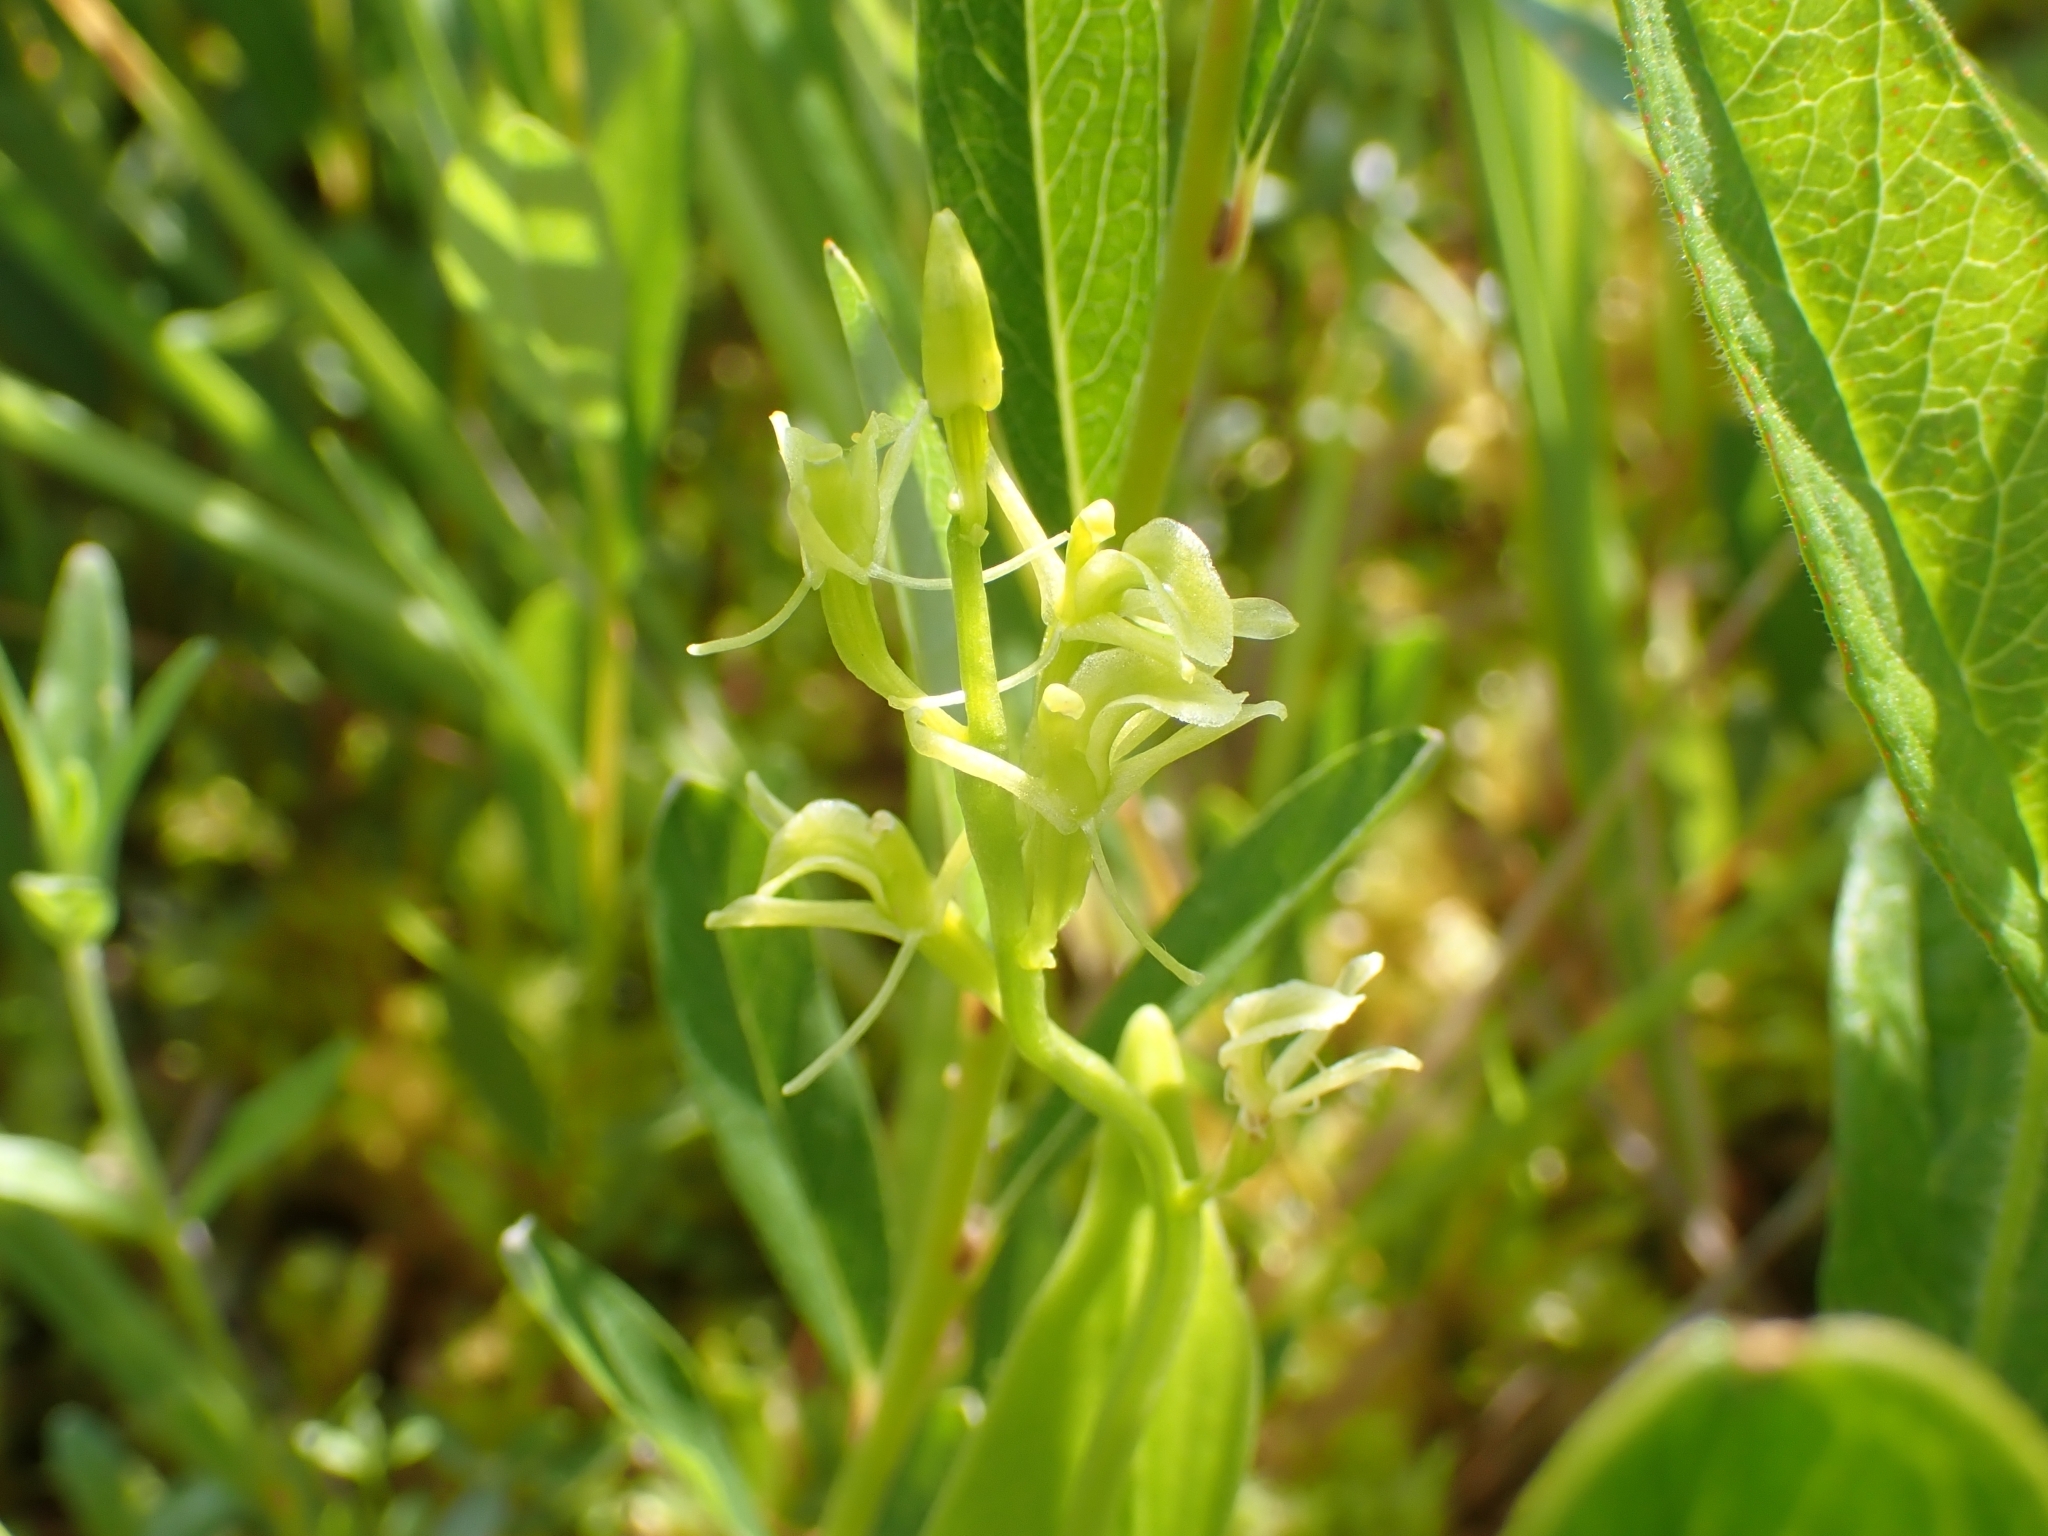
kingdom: Animalia
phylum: Arthropoda
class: Insecta
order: Coleoptera
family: Curculionidae
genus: Liparis
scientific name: Liparis loeselii
